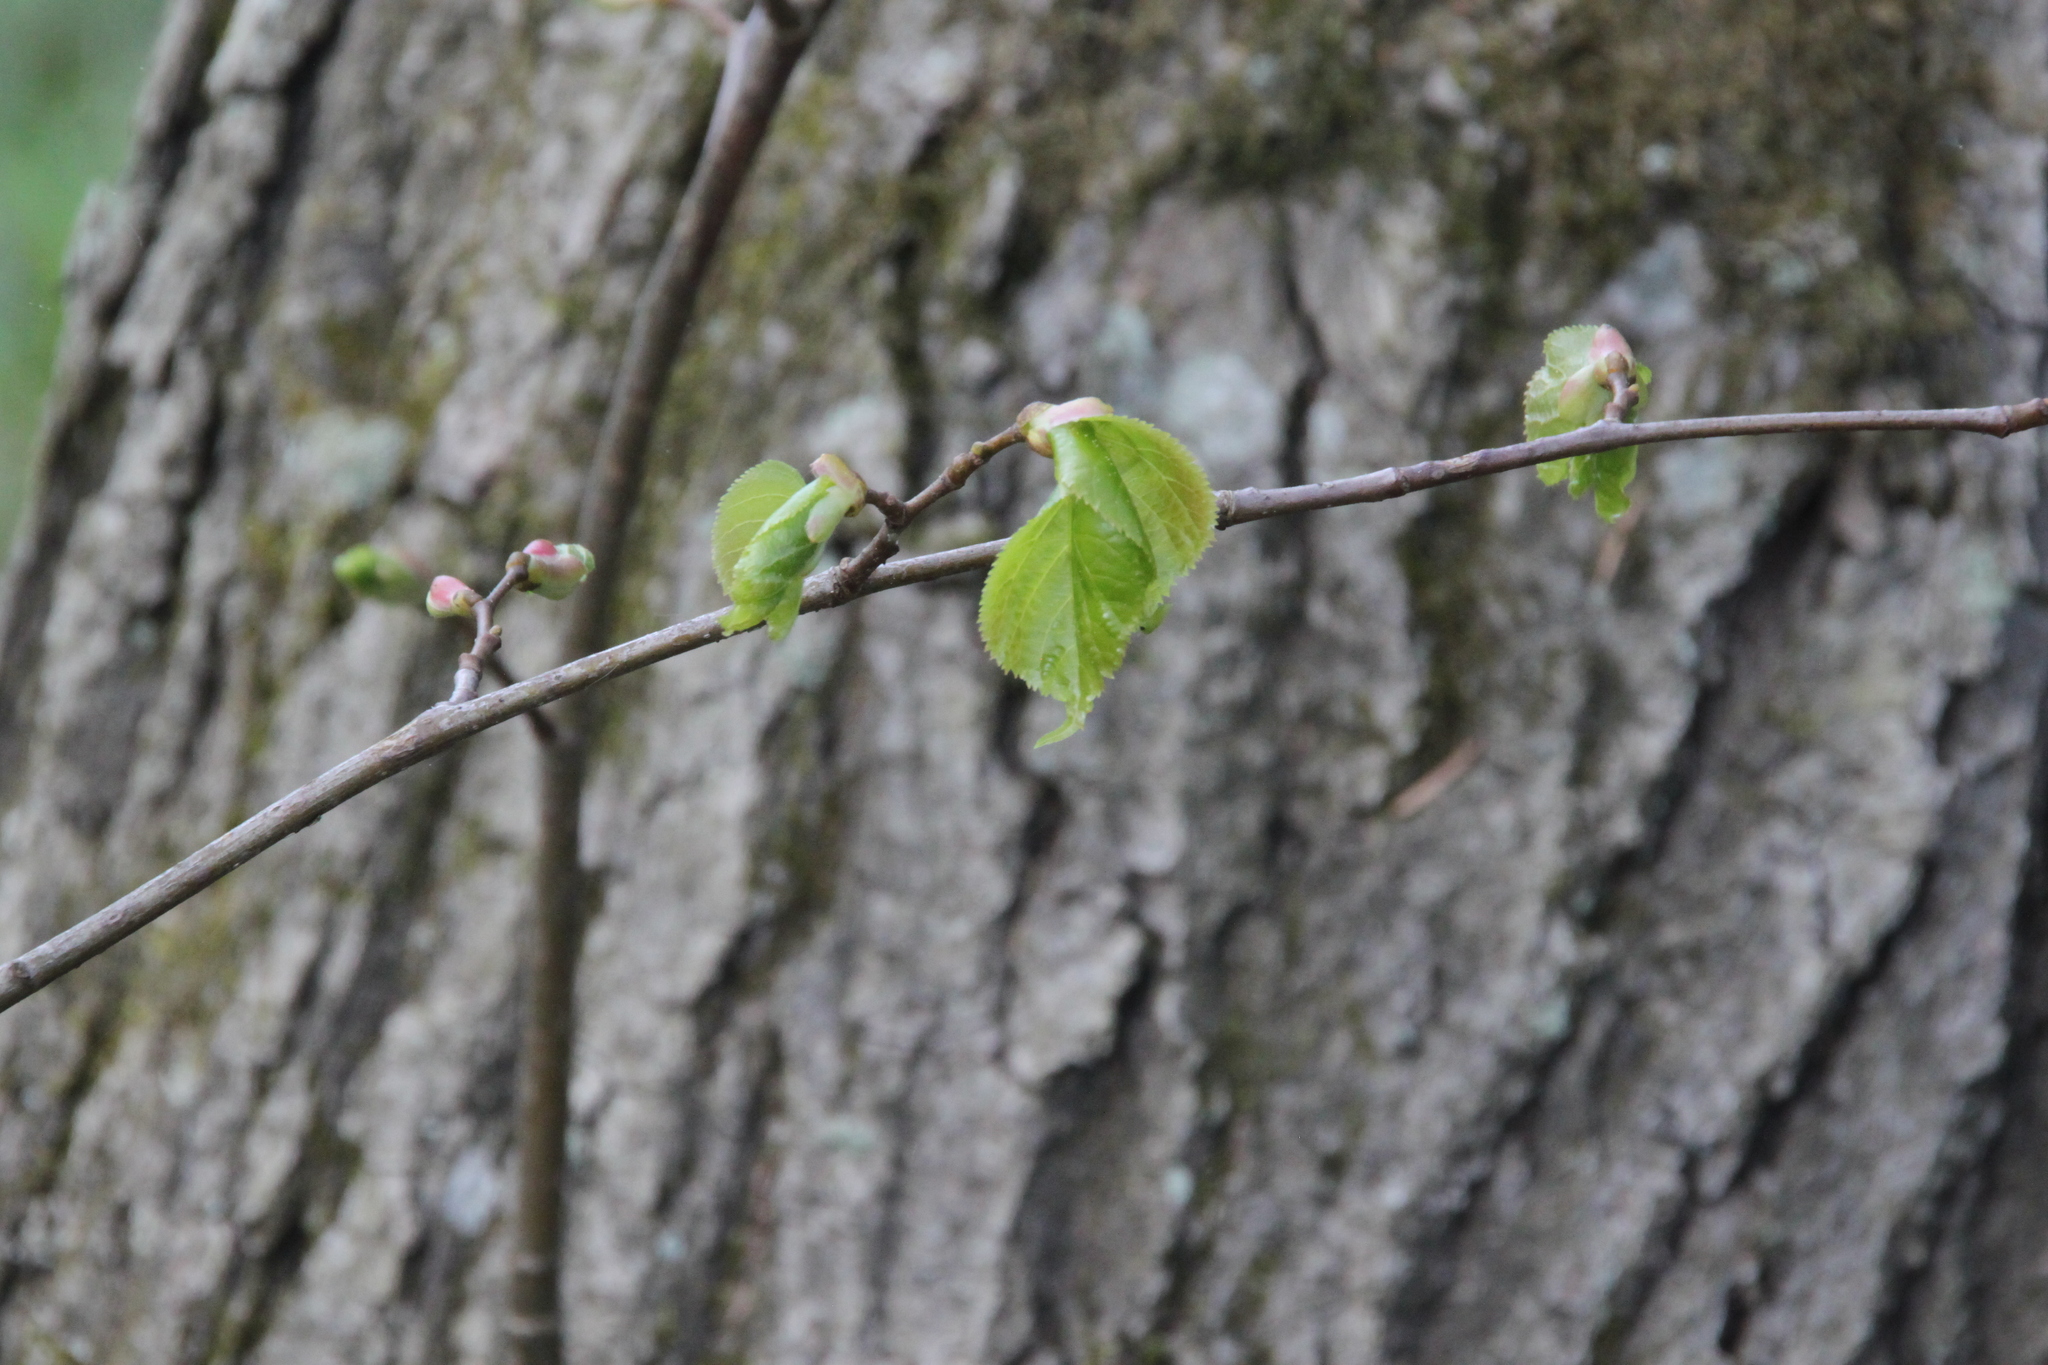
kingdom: Plantae
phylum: Tracheophyta
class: Magnoliopsida
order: Malvales
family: Malvaceae
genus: Tilia
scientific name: Tilia cordata
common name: Small-leaved lime
